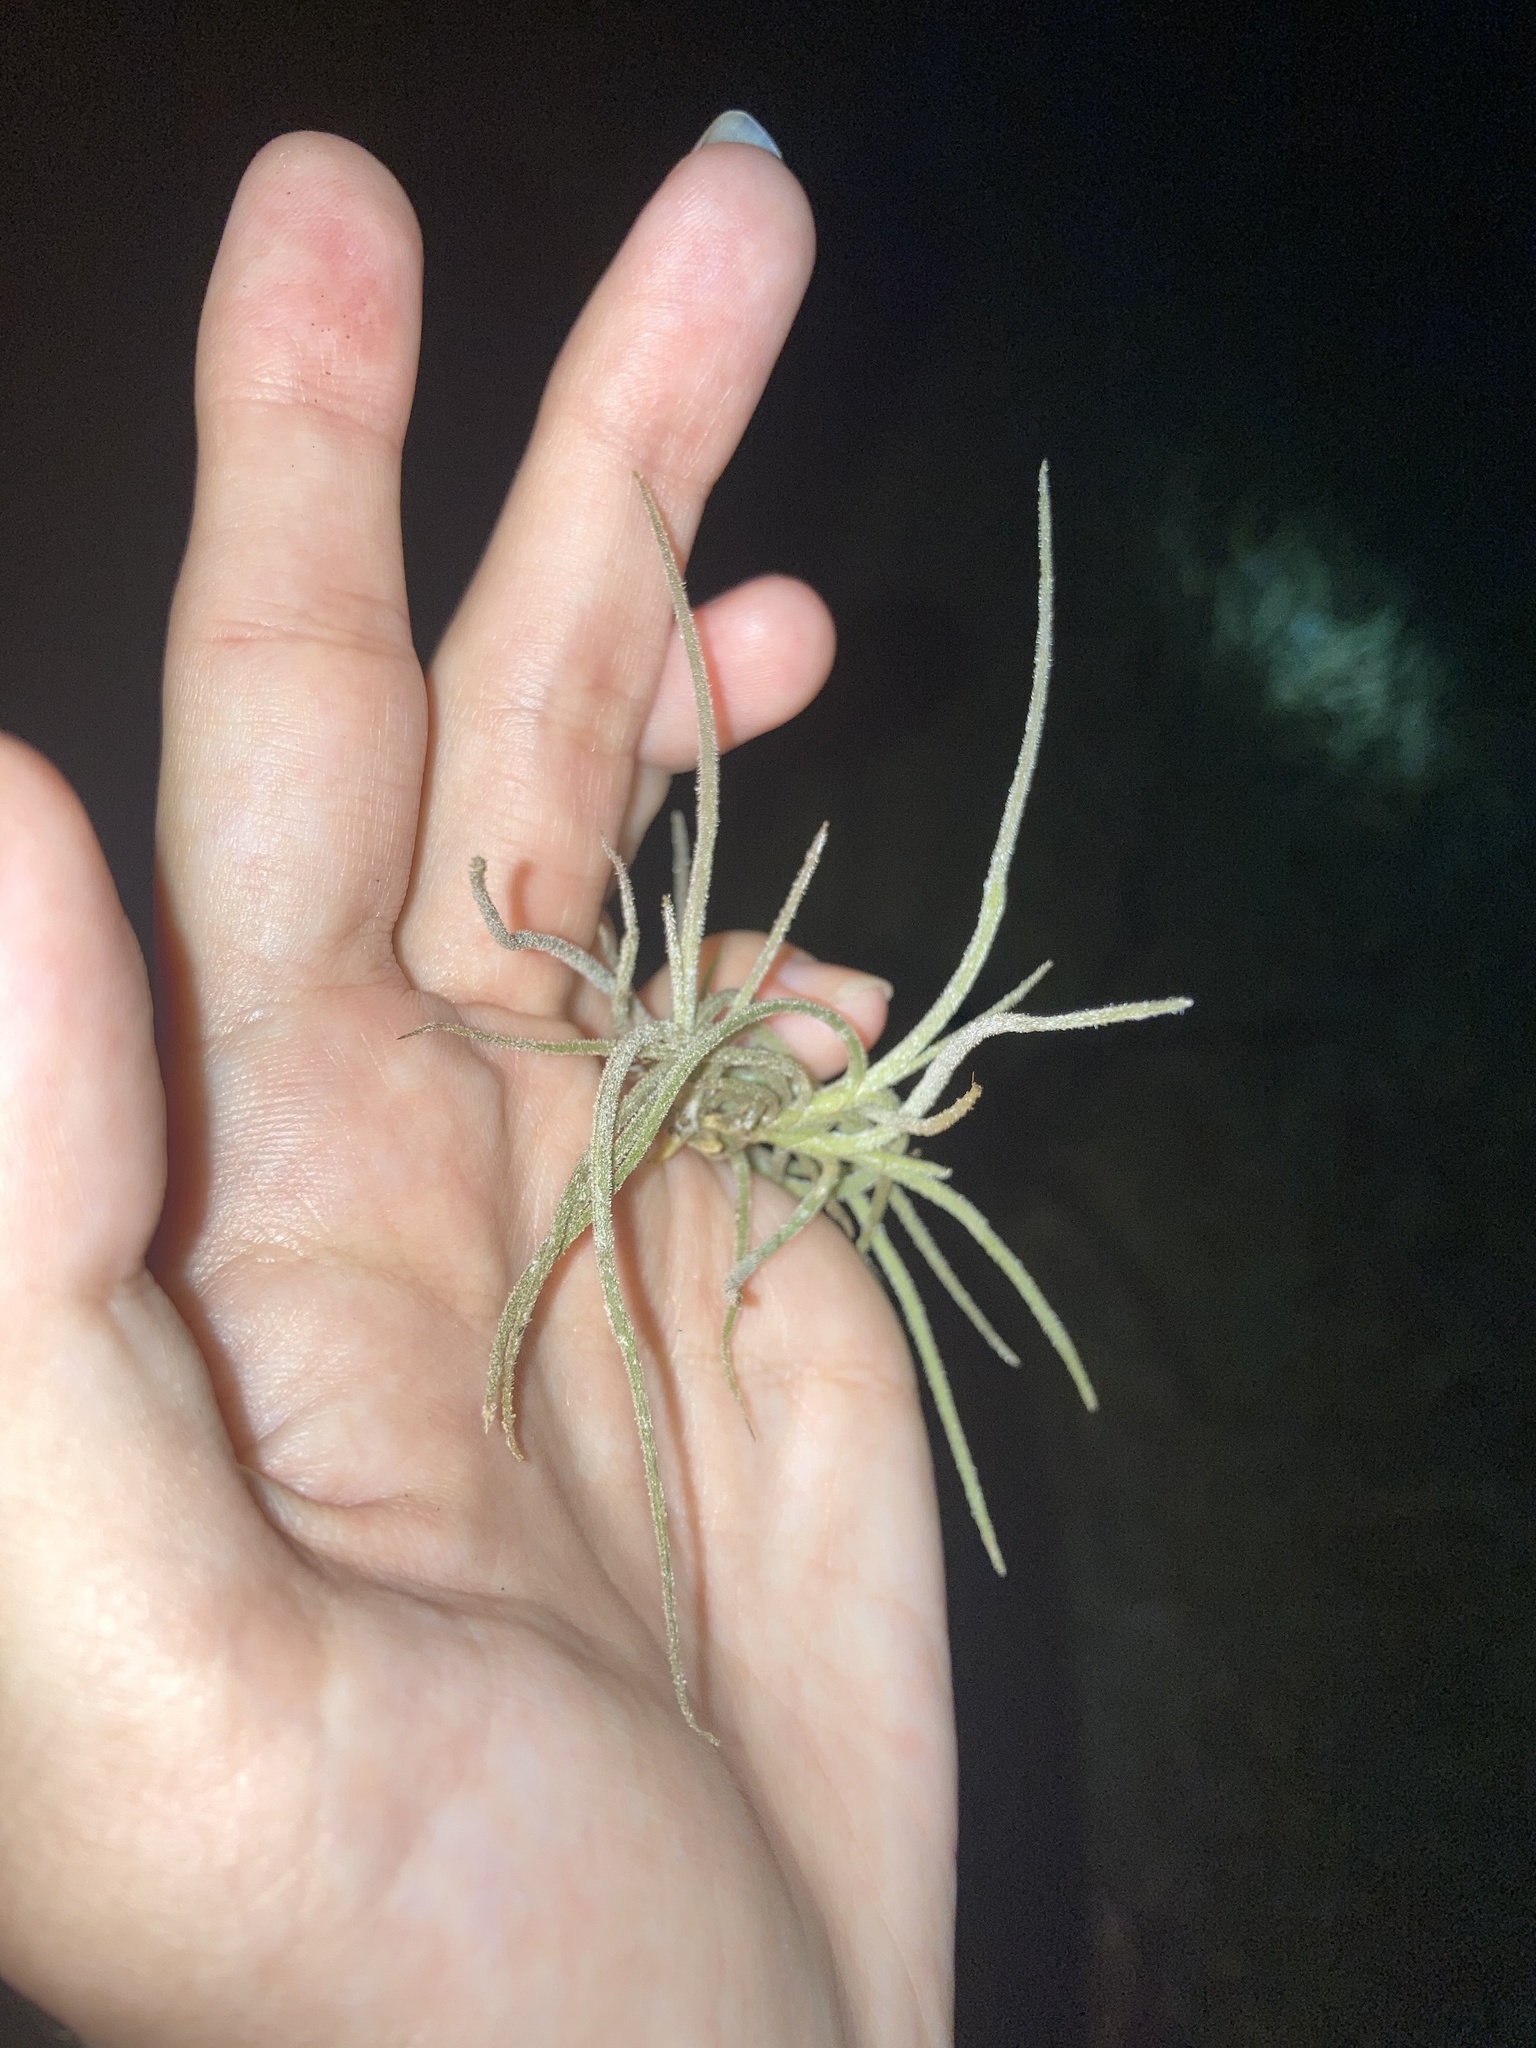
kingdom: Plantae
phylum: Tracheophyta
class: Liliopsida
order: Poales
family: Bromeliaceae
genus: Tillandsia
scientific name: Tillandsia usneoides
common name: Spanish moss
